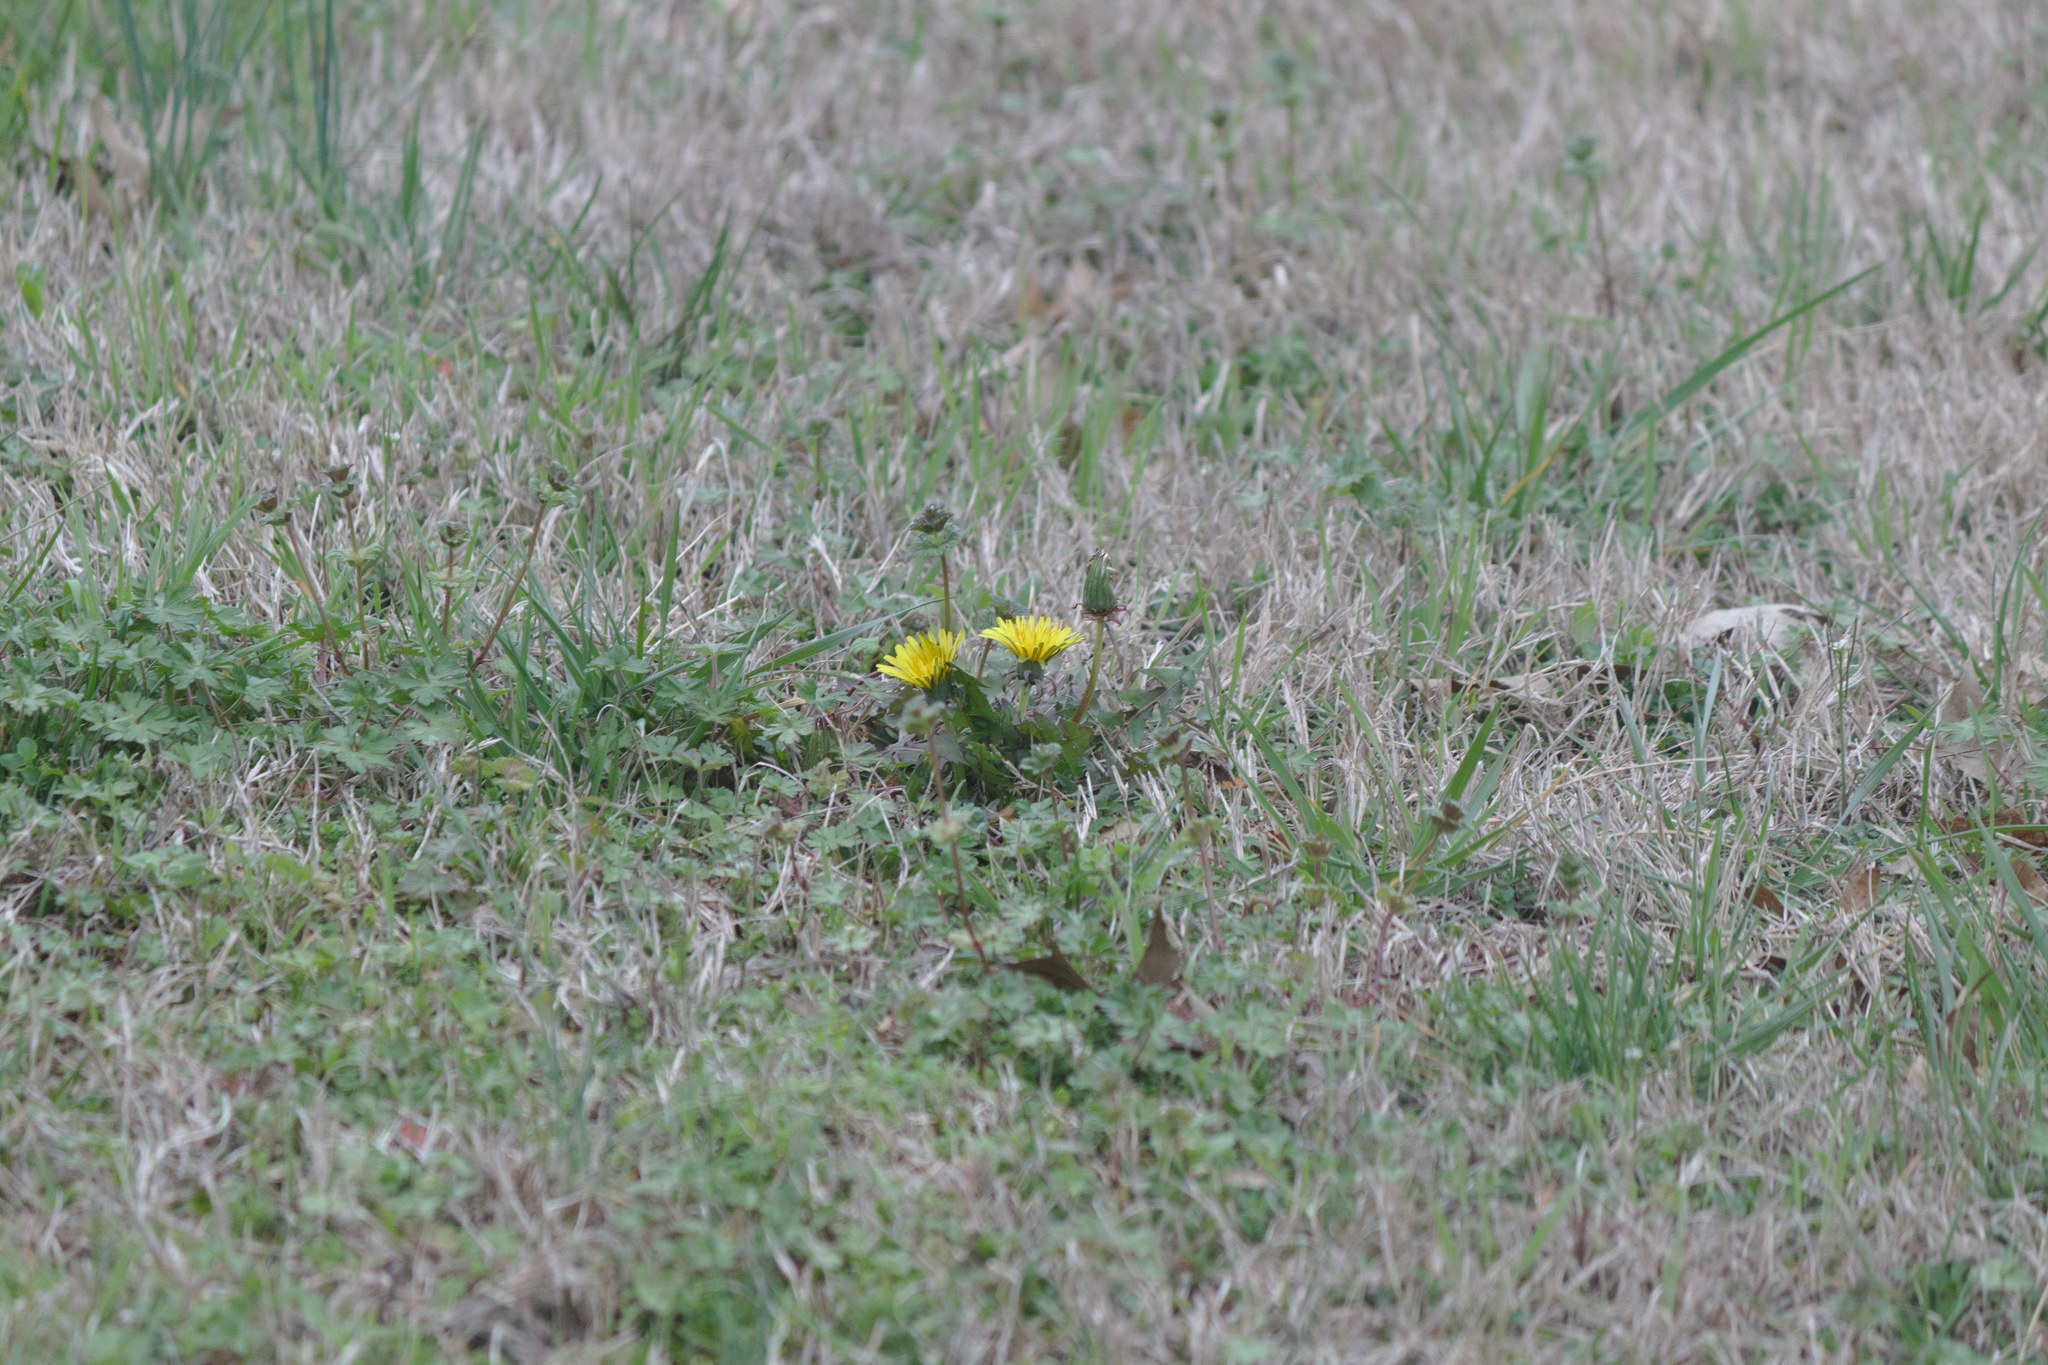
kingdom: Plantae
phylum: Tracheophyta
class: Magnoliopsida
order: Asterales
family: Asteraceae
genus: Taraxacum
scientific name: Taraxacum officinale
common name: Common dandelion
